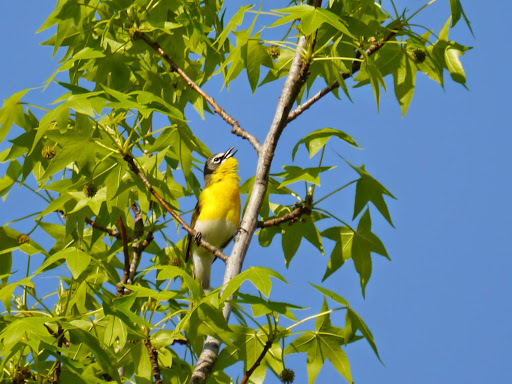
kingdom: Animalia
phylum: Chordata
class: Aves
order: Passeriformes
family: Parulidae
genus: Icteria
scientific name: Icteria virens
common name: Yellow-breasted chat
